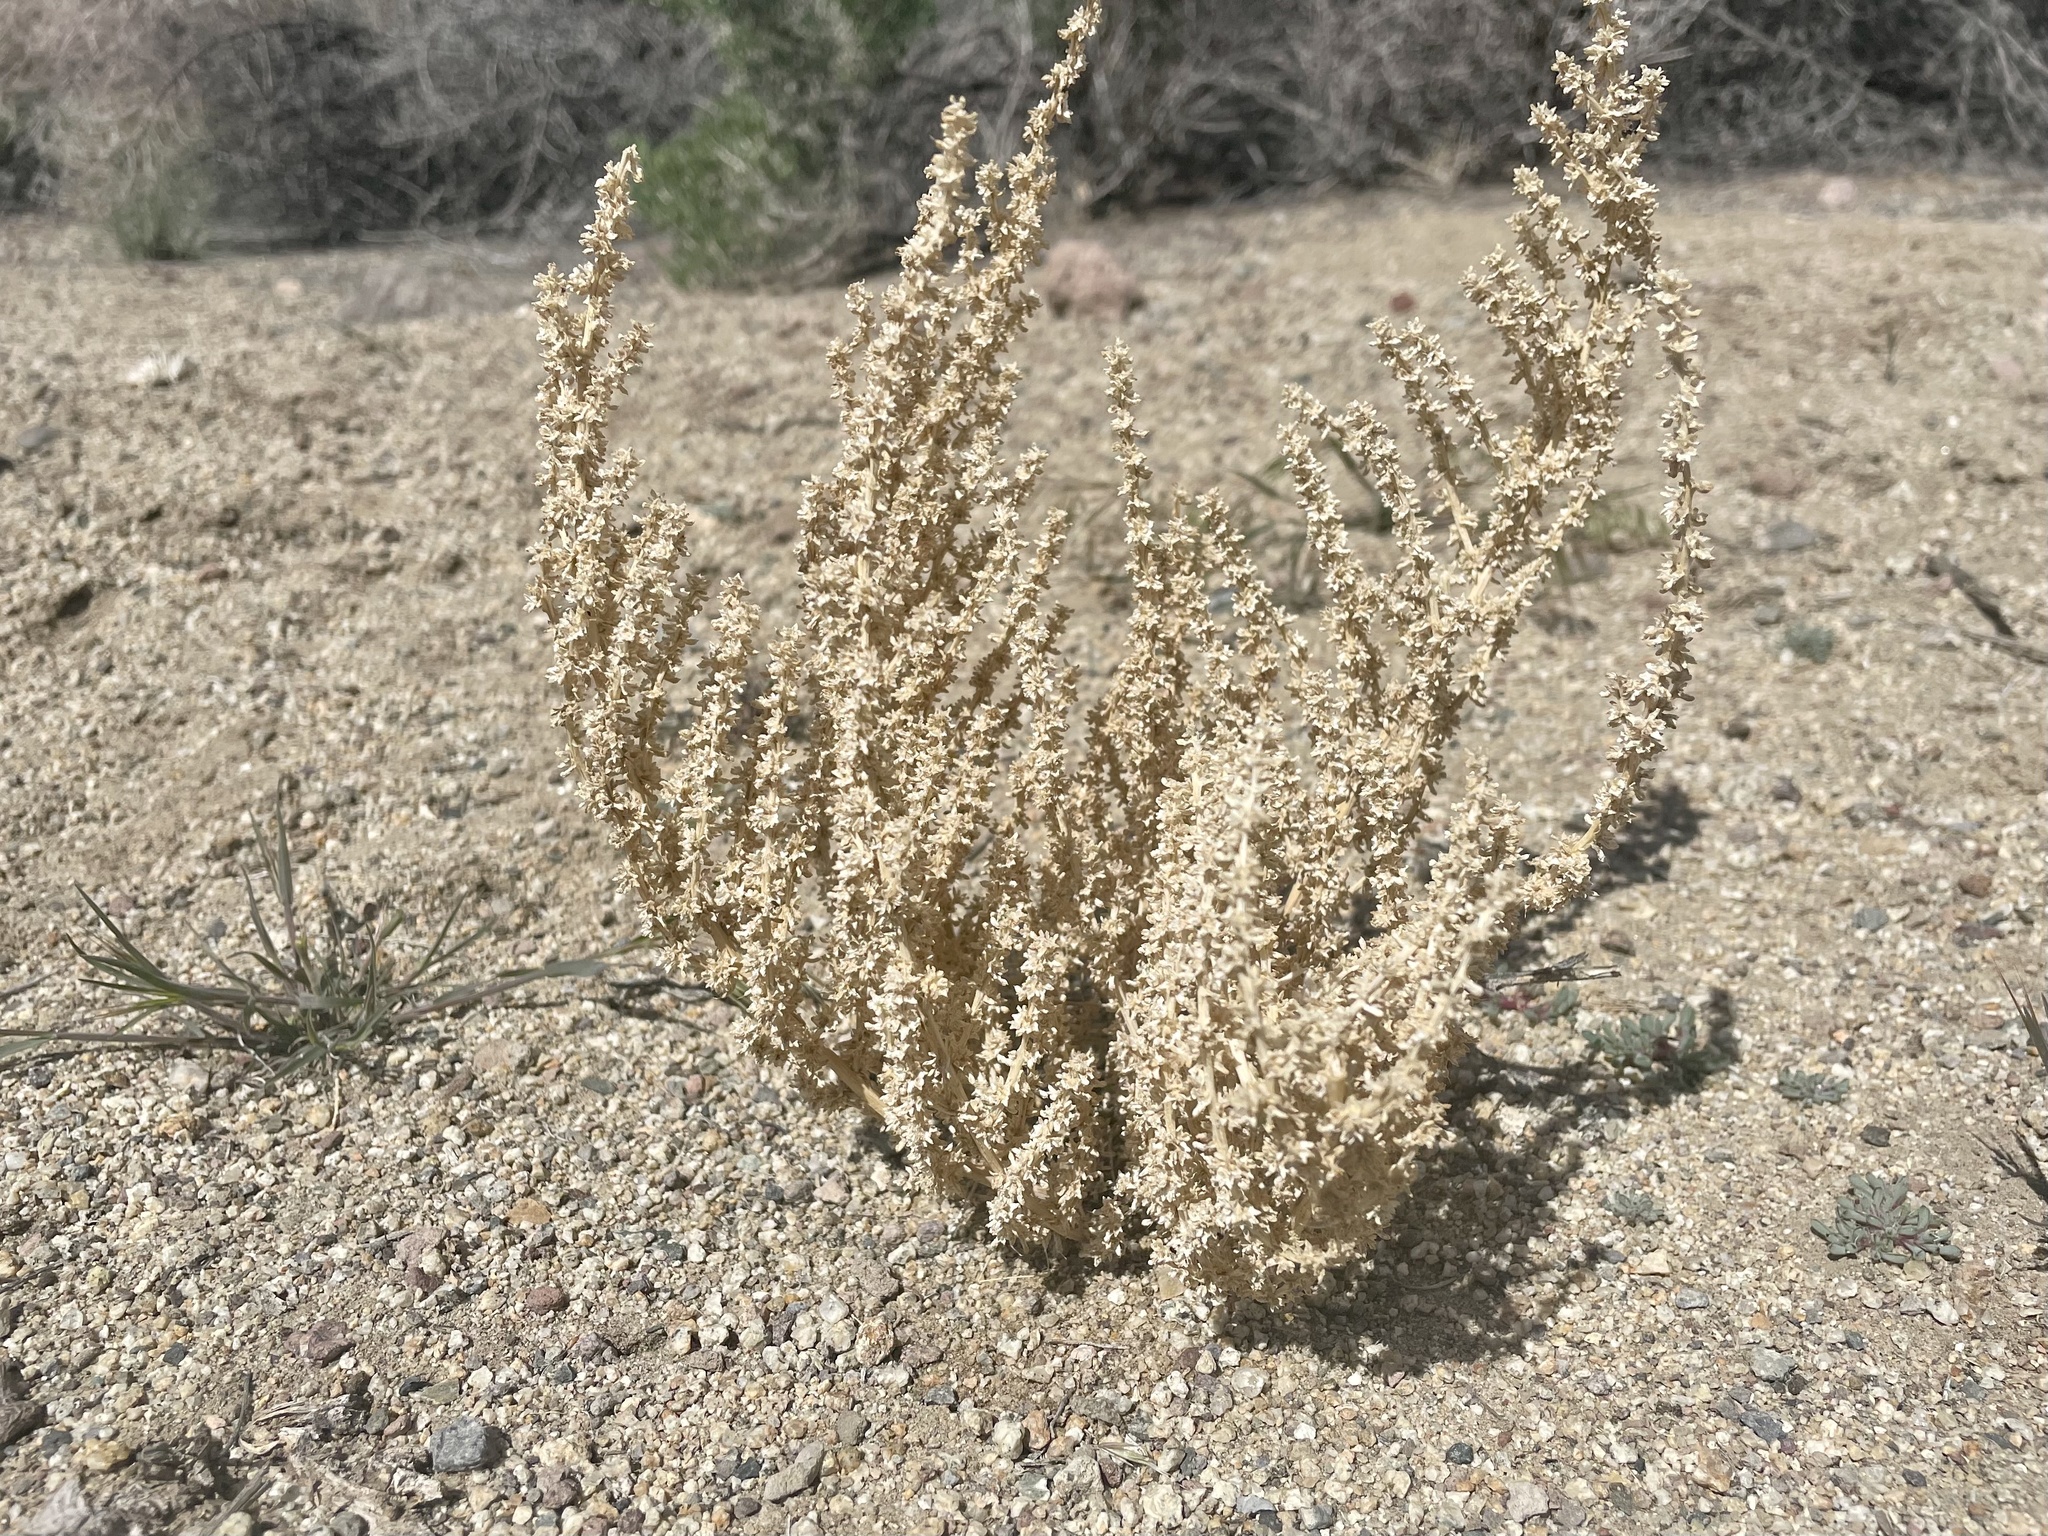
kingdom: Plantae
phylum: Tracheophyta
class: Magnoliopsida
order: Caryophyllales
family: Amaranthaceae
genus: Halogeton
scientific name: Halogeton glomeratus
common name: Saltlover
